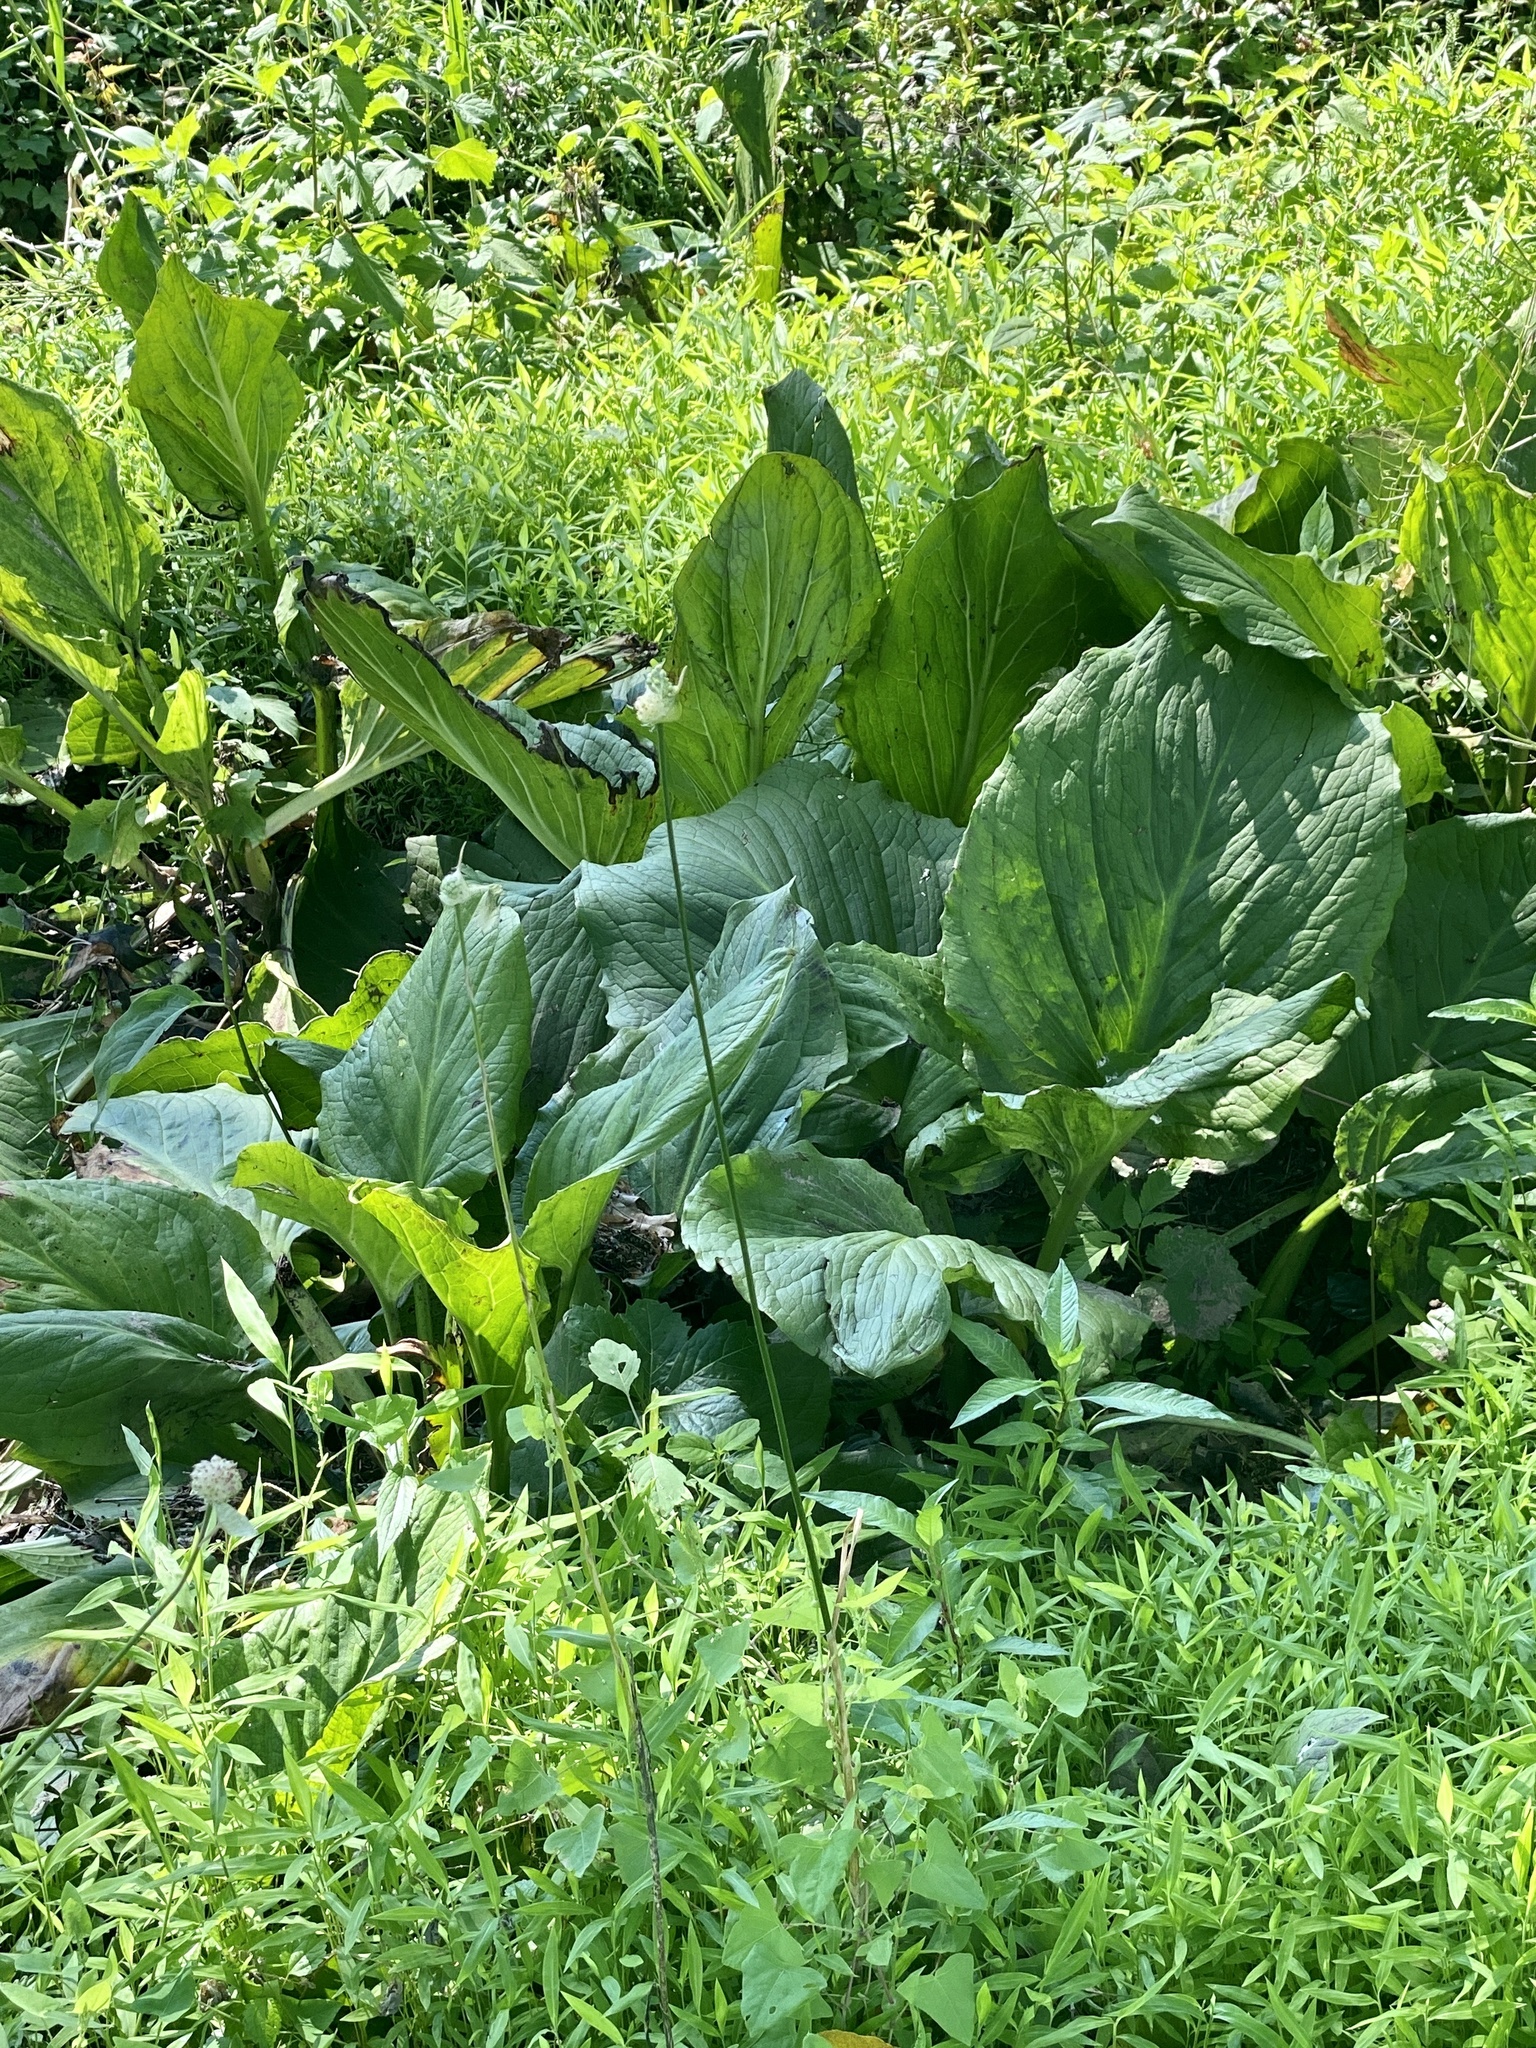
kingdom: Plantae
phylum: Tracheophyta
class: Liliopsida
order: Alismatales
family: Araceae
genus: Symplocarpus
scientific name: Symplocarpus foetidus
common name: Eastern skunk cabbage
